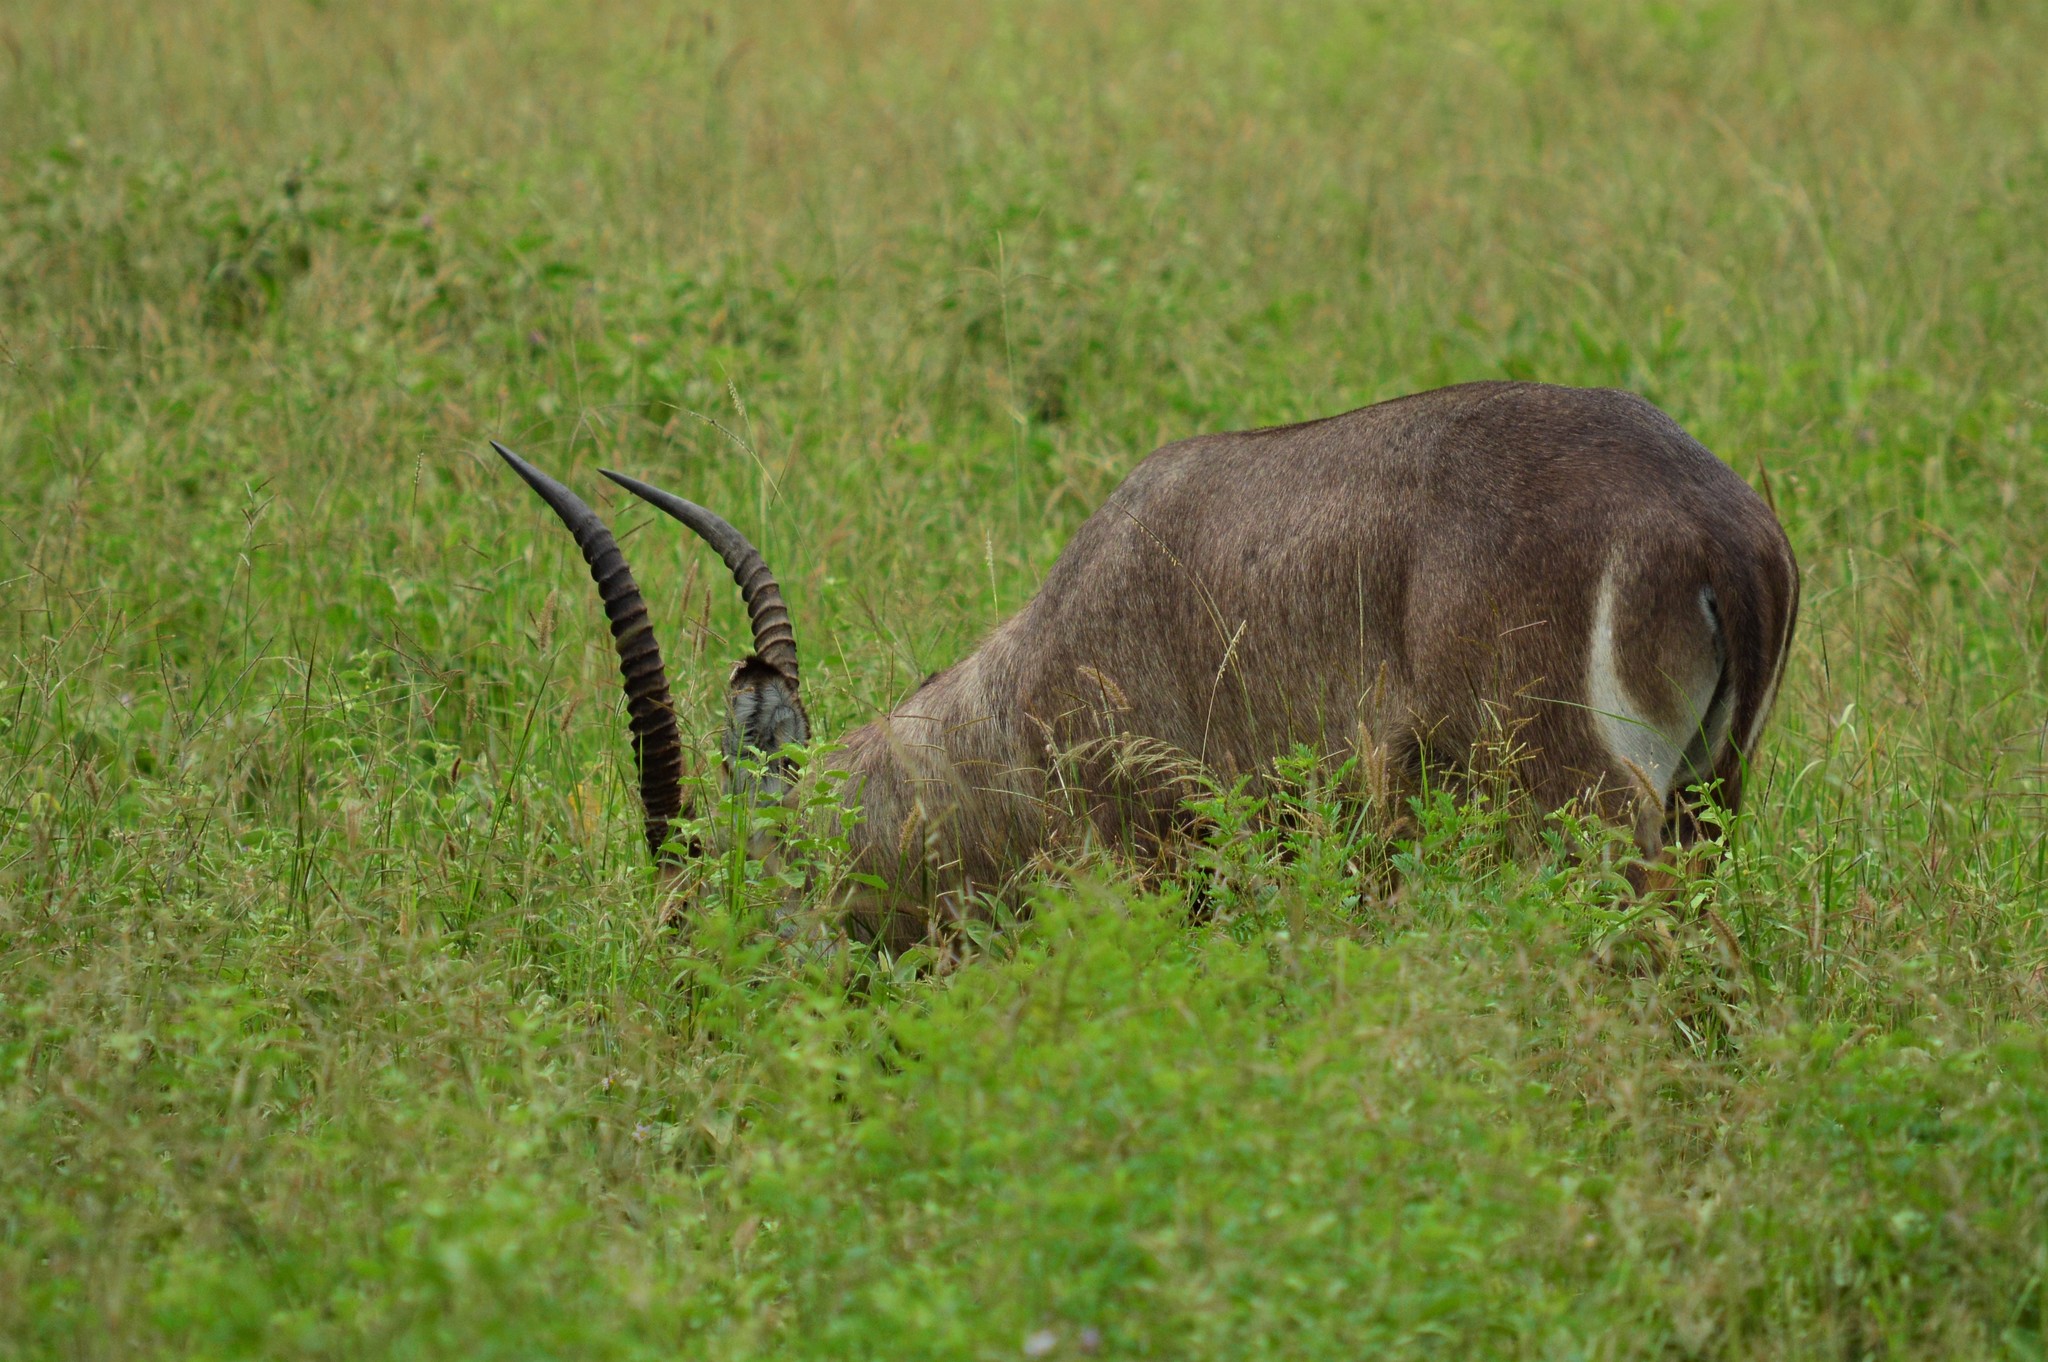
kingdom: Animalia
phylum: Chordata
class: Mammalia
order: Artiodactyla
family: Bovidae
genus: Kobus
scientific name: Kobus ellipsiprymnus
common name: Waterbuck
